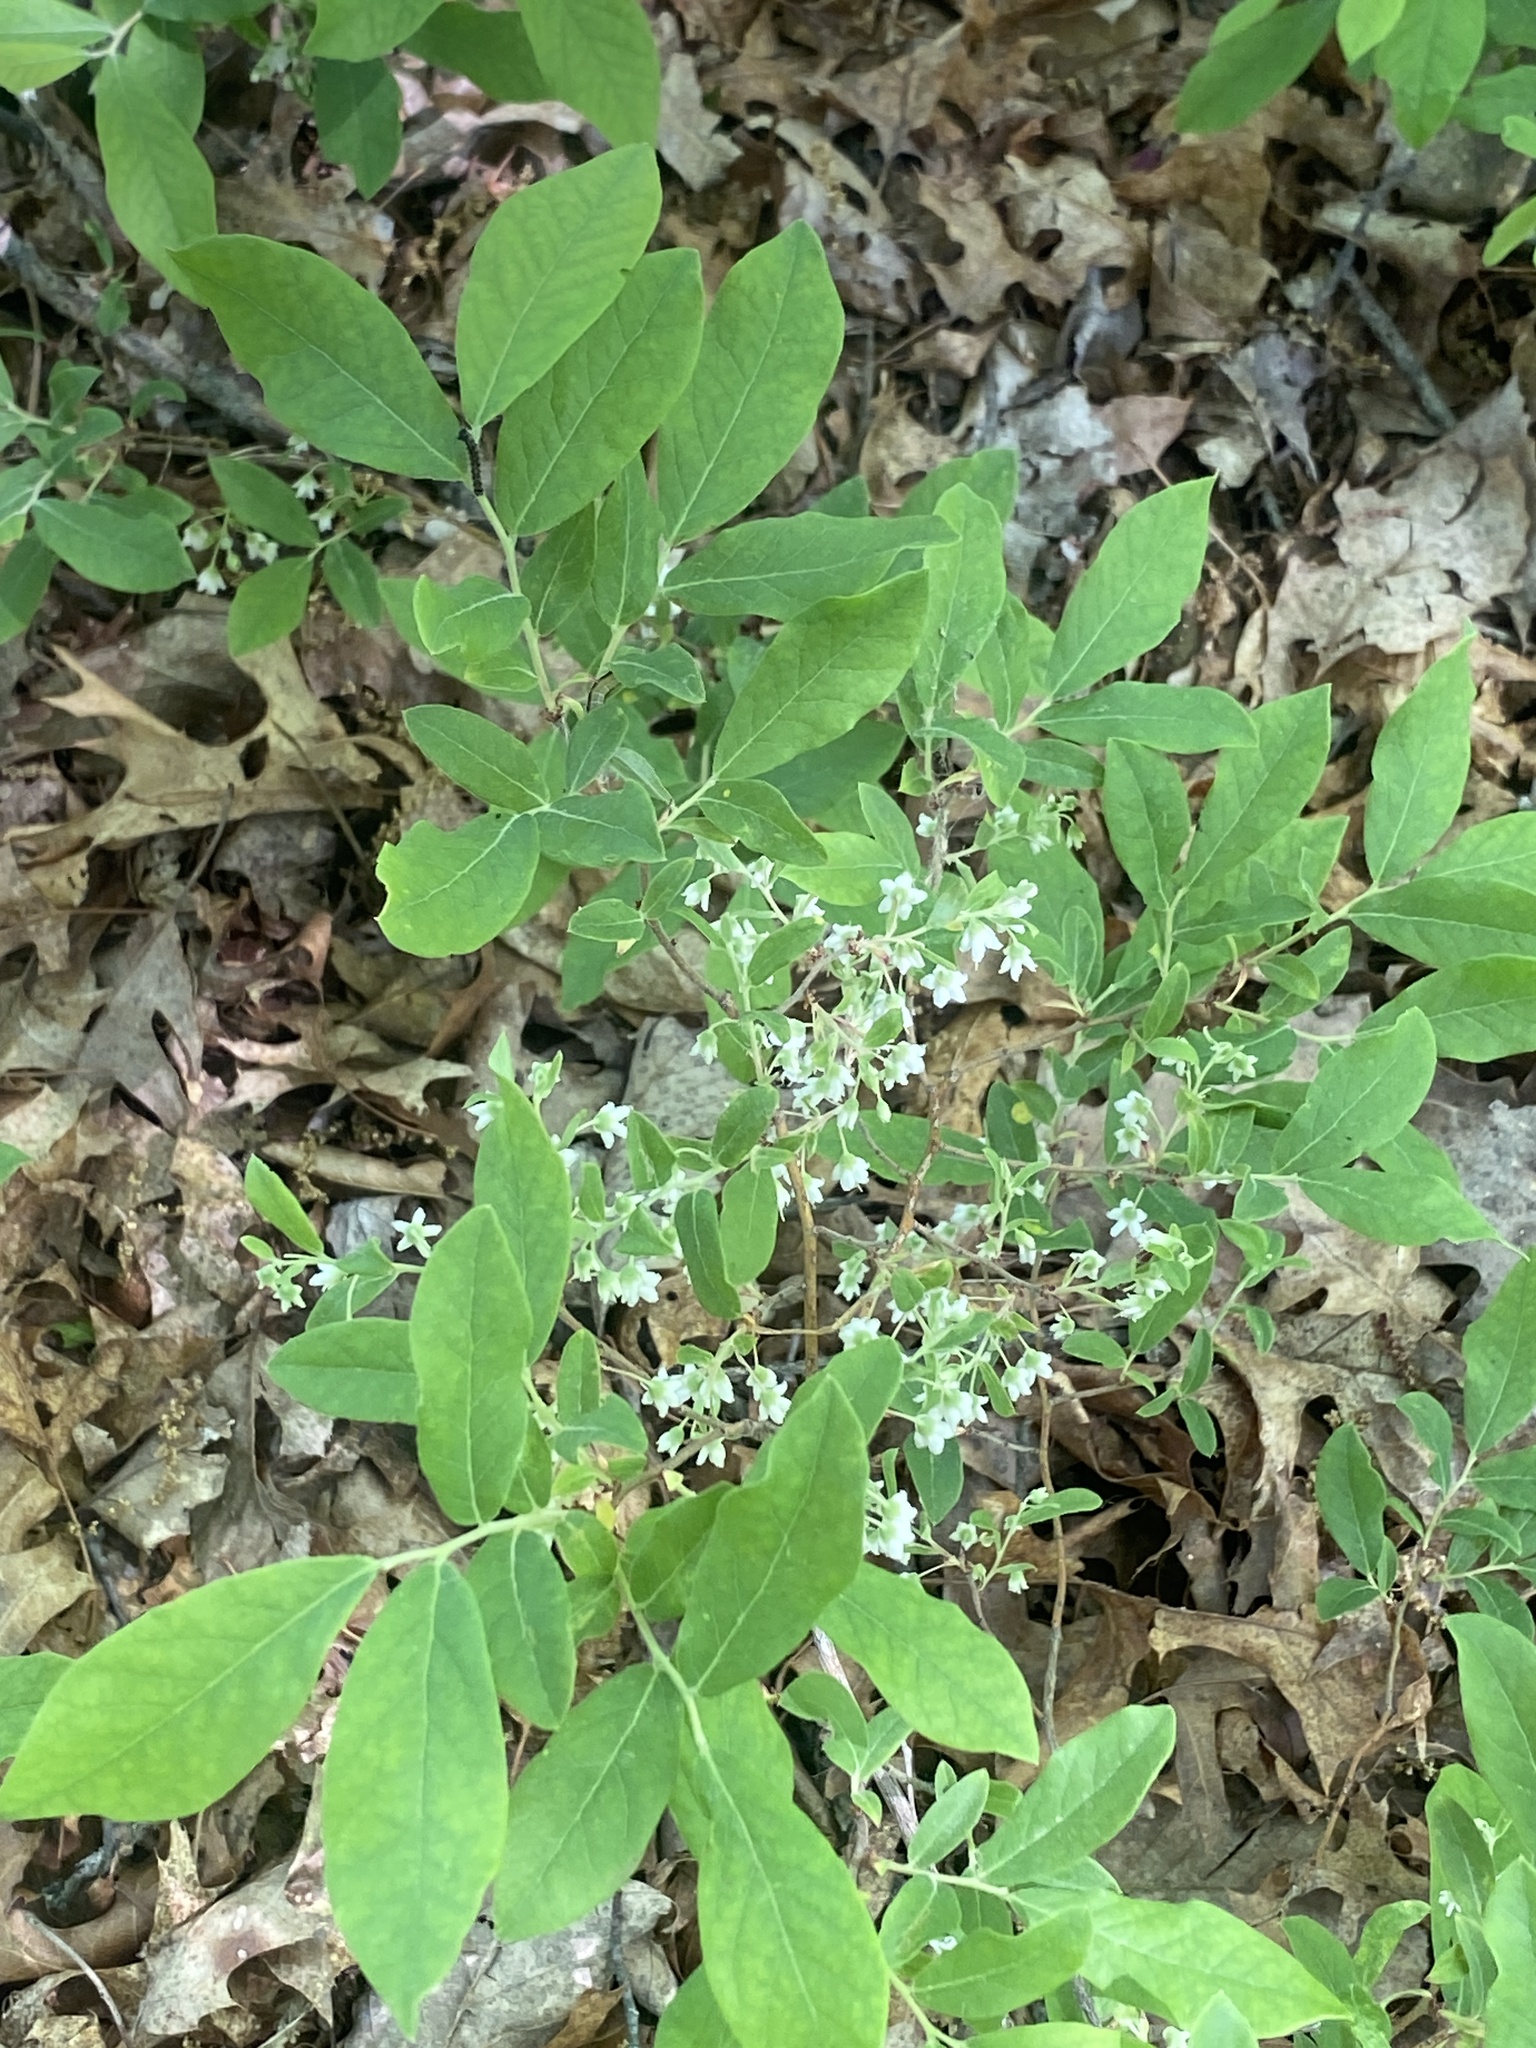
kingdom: Plantae
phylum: Tracheophyta
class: Magnoliopsida
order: Ericales
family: Ericaceae
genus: Vaccinium
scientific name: Vaccinium stamineum
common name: Deerberry
